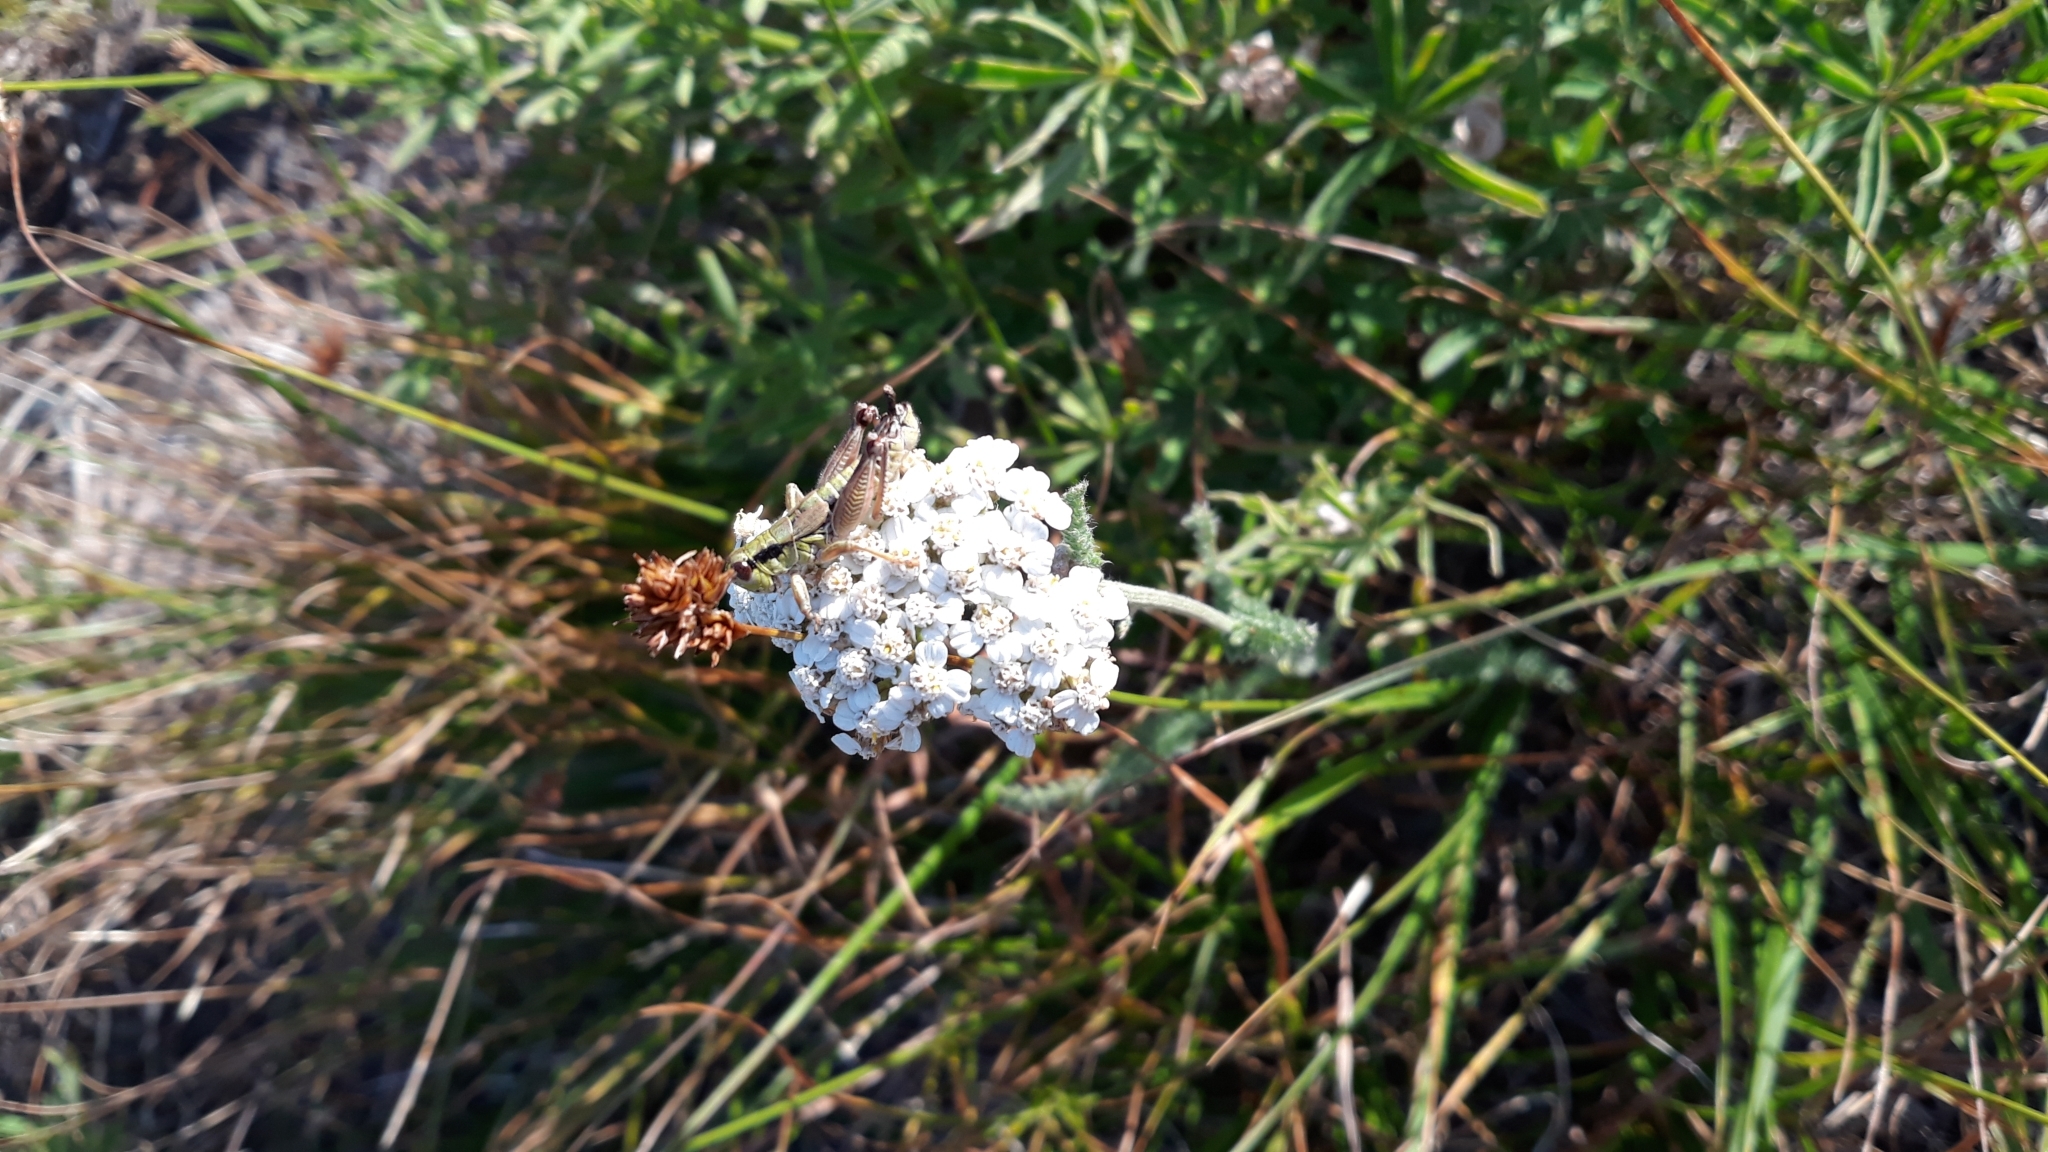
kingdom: Plantae
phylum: Tracheophyta
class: Magnoliopsida
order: Asterales
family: Asteraceae
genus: Achillea
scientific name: Achillea millefolium
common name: Yarrow
